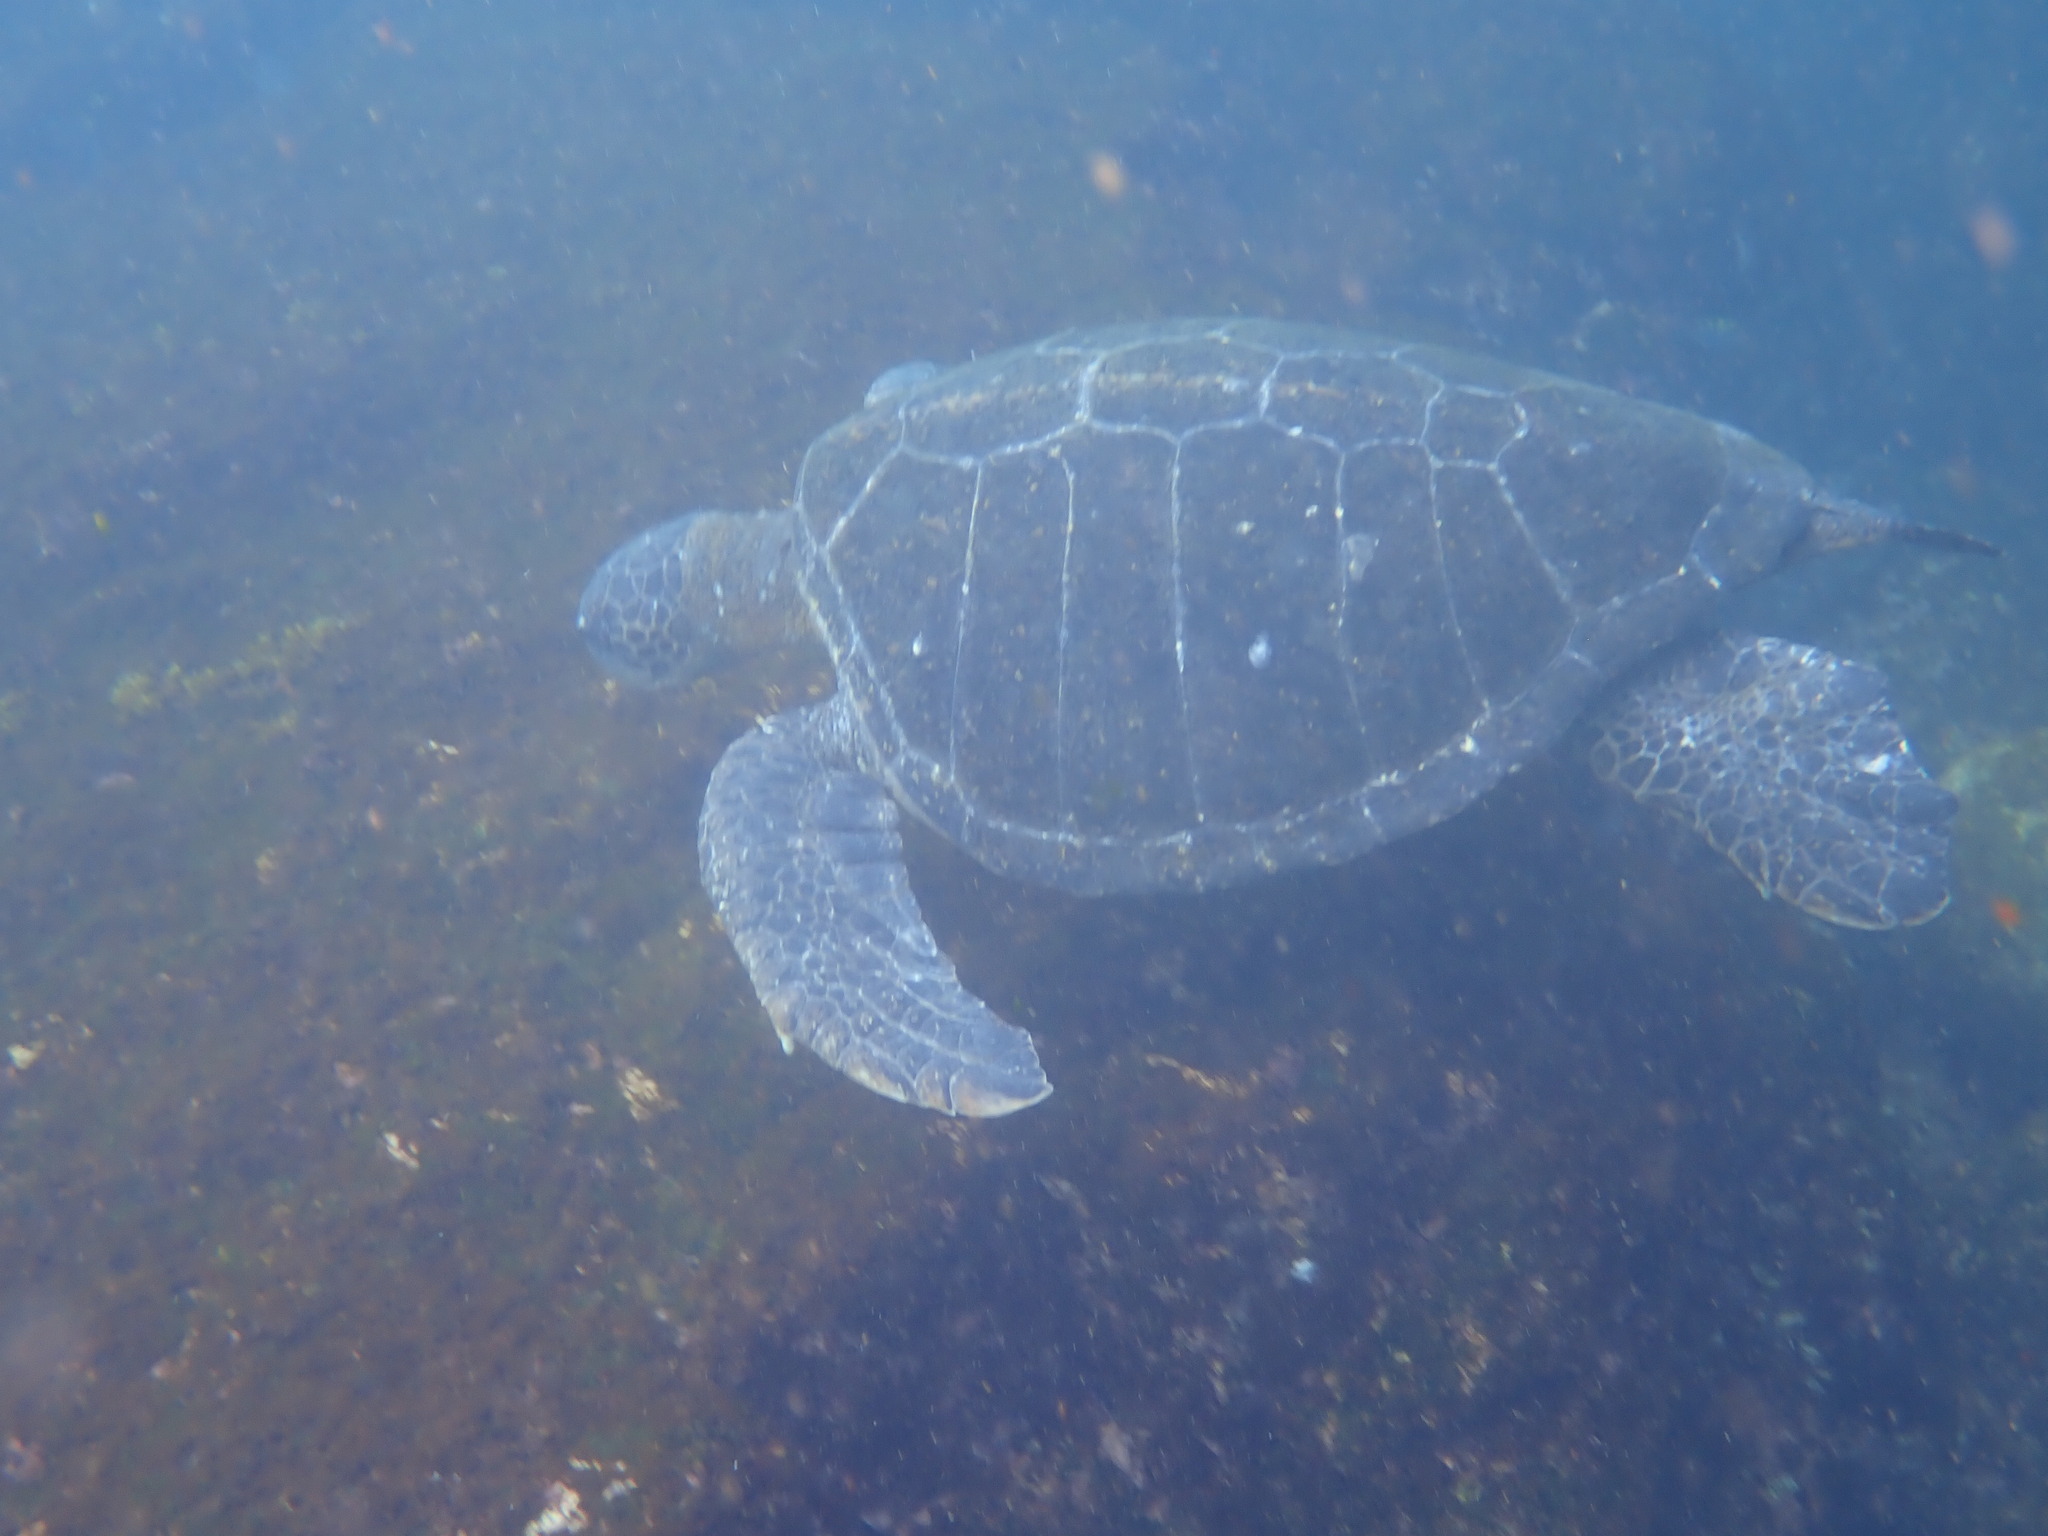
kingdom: Animalia
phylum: Chordata
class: Testudines
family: Cheloniidae
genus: Chelonia
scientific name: Chelonia mydas
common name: Green turtle
